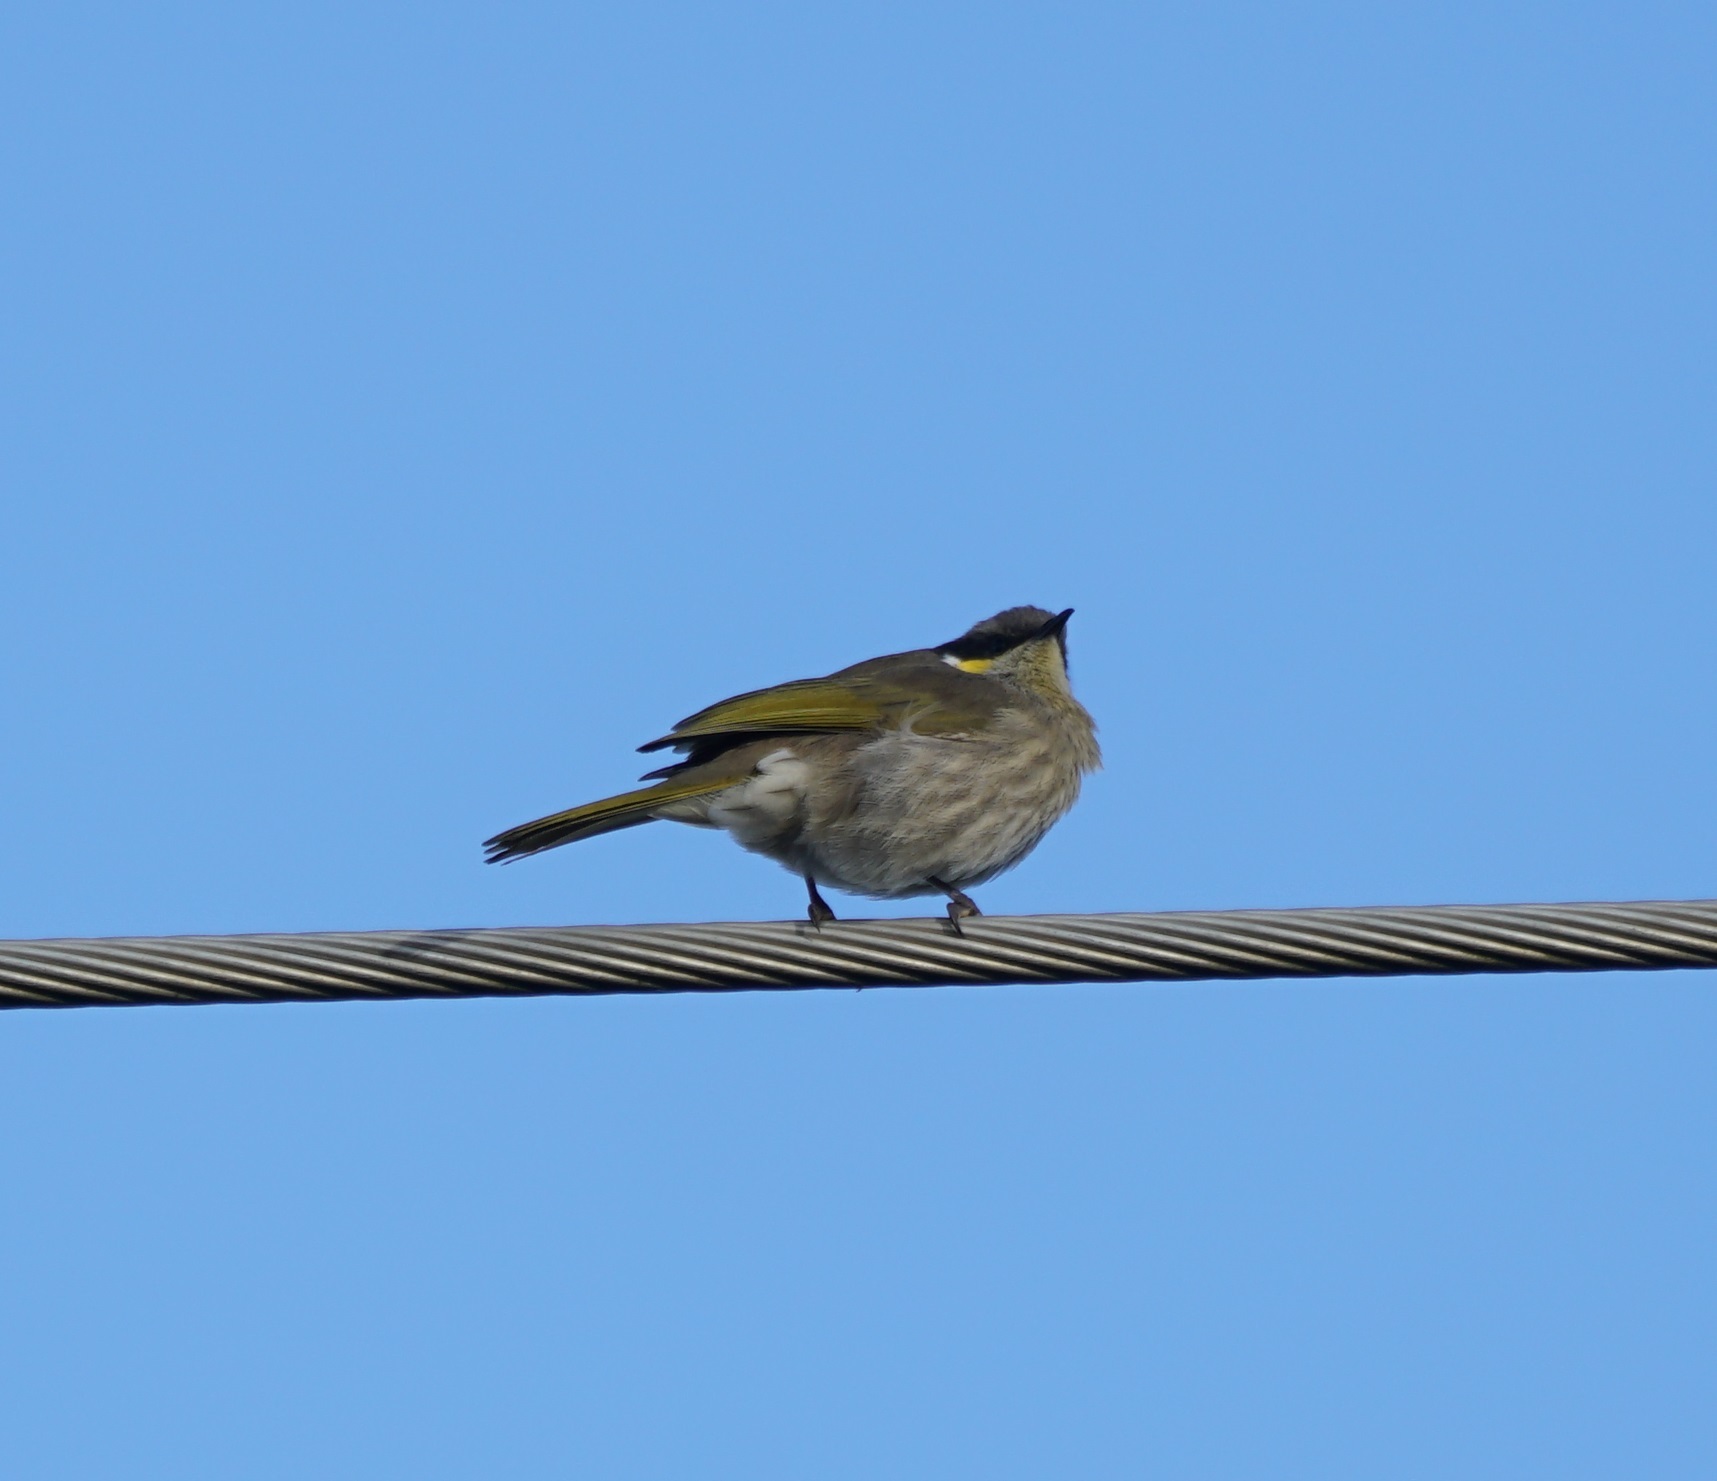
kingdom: Animalia
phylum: Chordata
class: Aves
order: Passeriformes
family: Meliphagidae
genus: Gavicalis
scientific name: Gavicalis virescens
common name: Singing honeyeater
